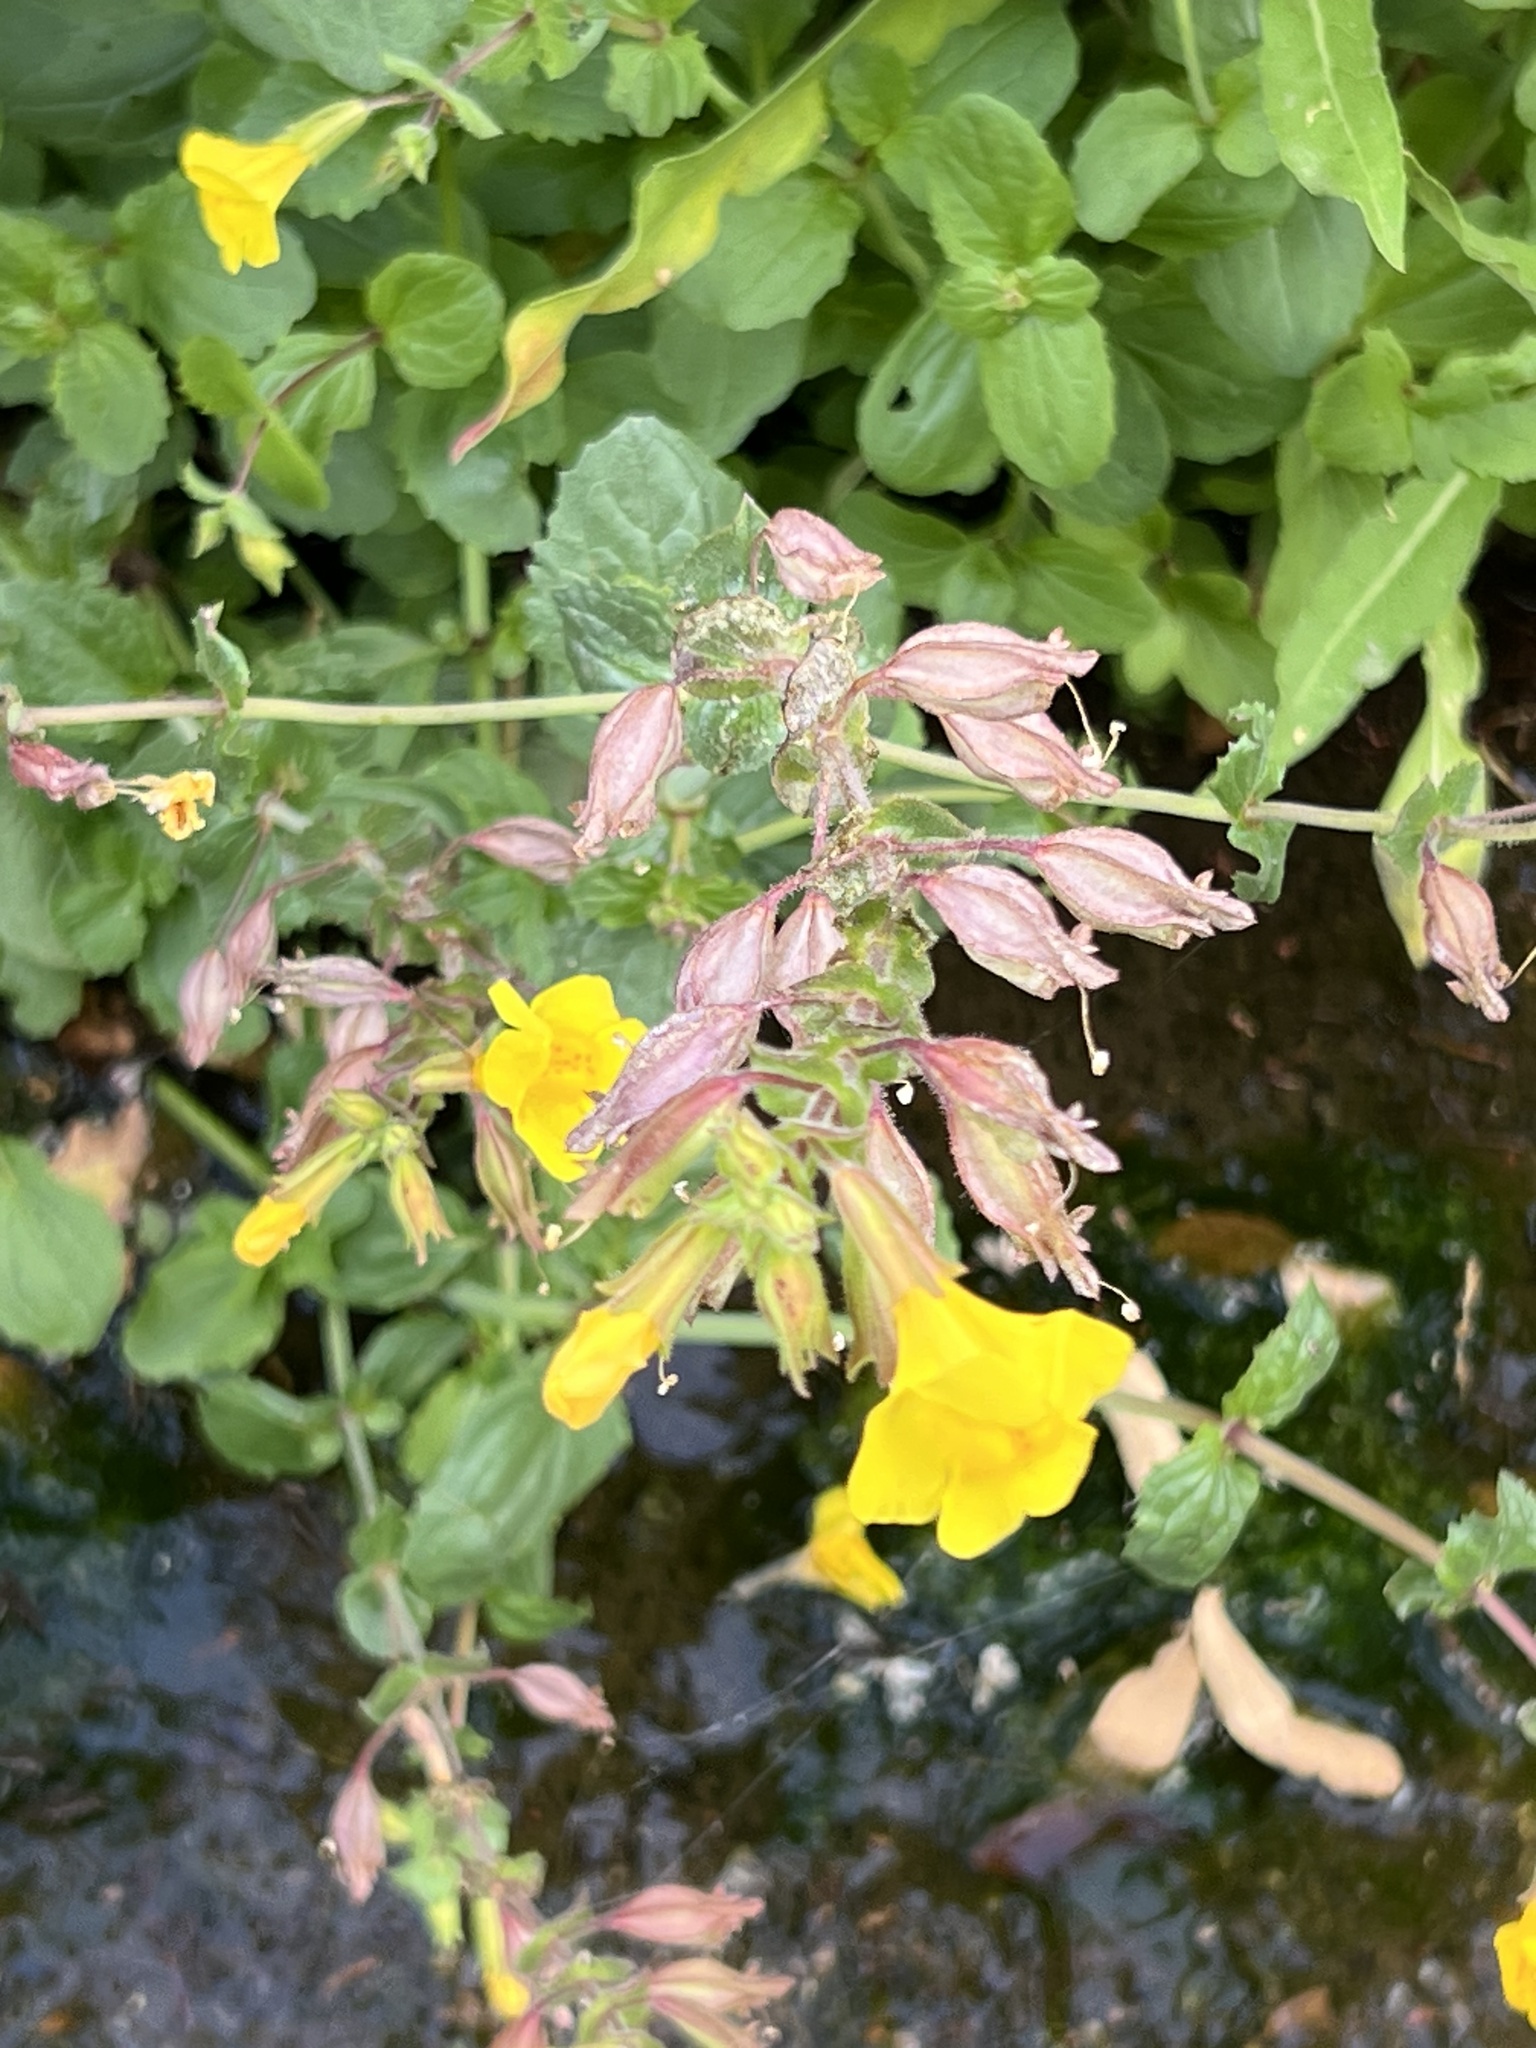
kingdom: Plantae
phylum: Tracheophyta
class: Magnoliopsida
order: Lamiales
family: Phrymaceae
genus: Erythranthe
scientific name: Erythranthe guttata
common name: Monkeyflower
